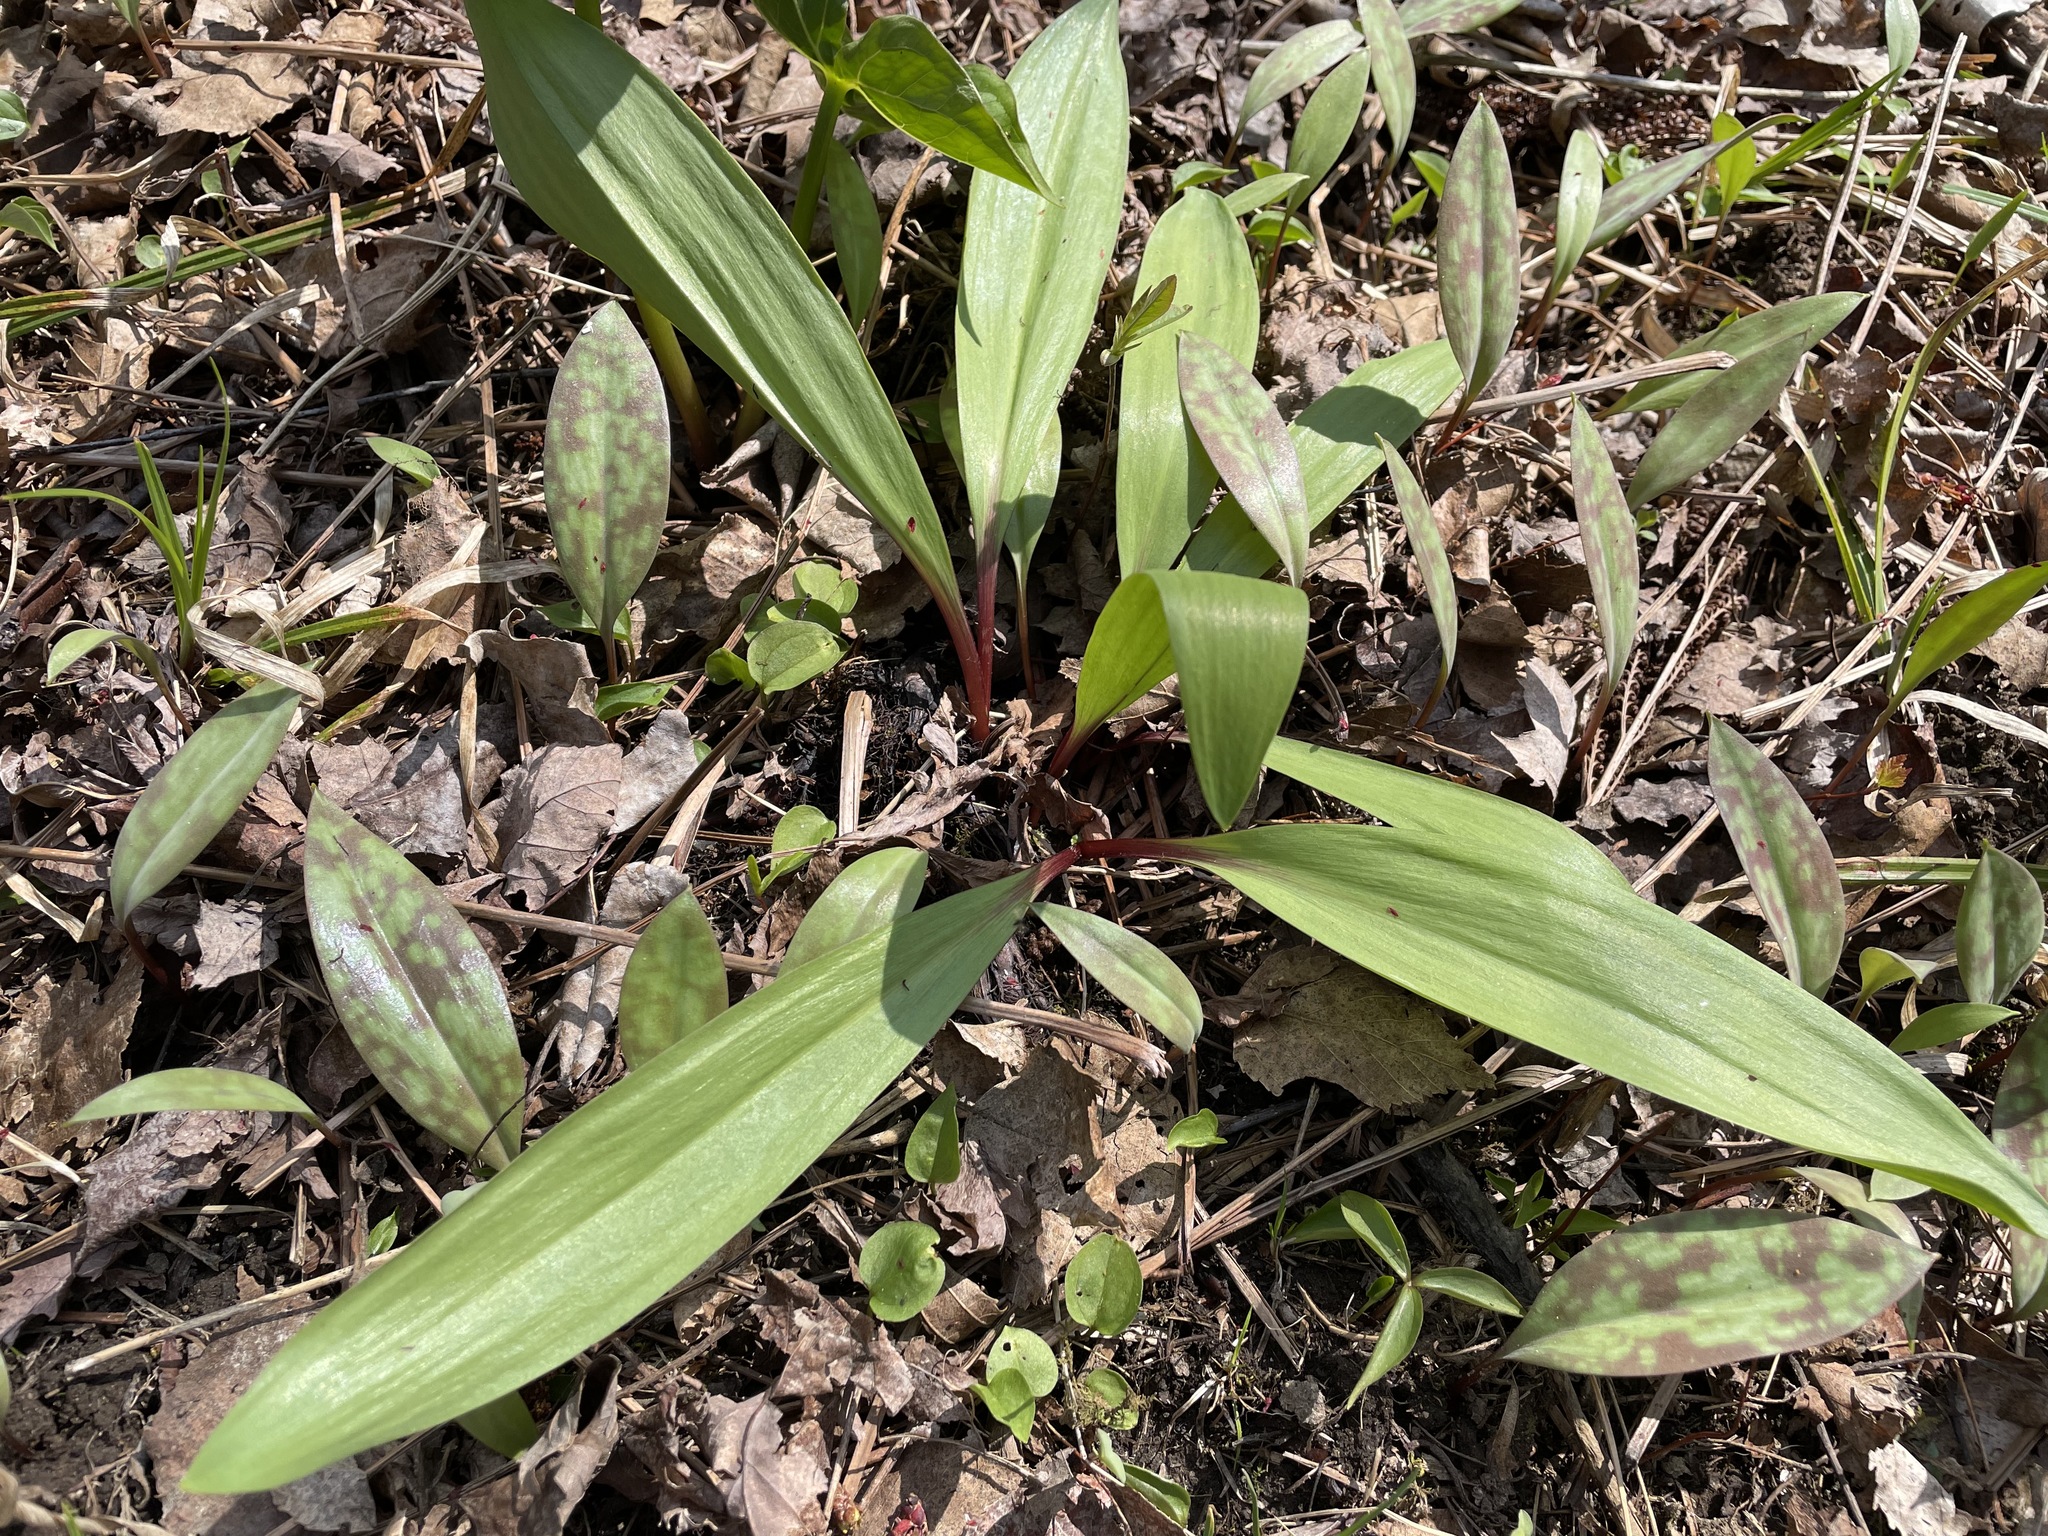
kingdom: Plantae
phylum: Tracheophyta
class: Liliopsida
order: Asparagales
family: Amaryllidaceae
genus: Allium
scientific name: Allium tricoccum
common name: Ramp
